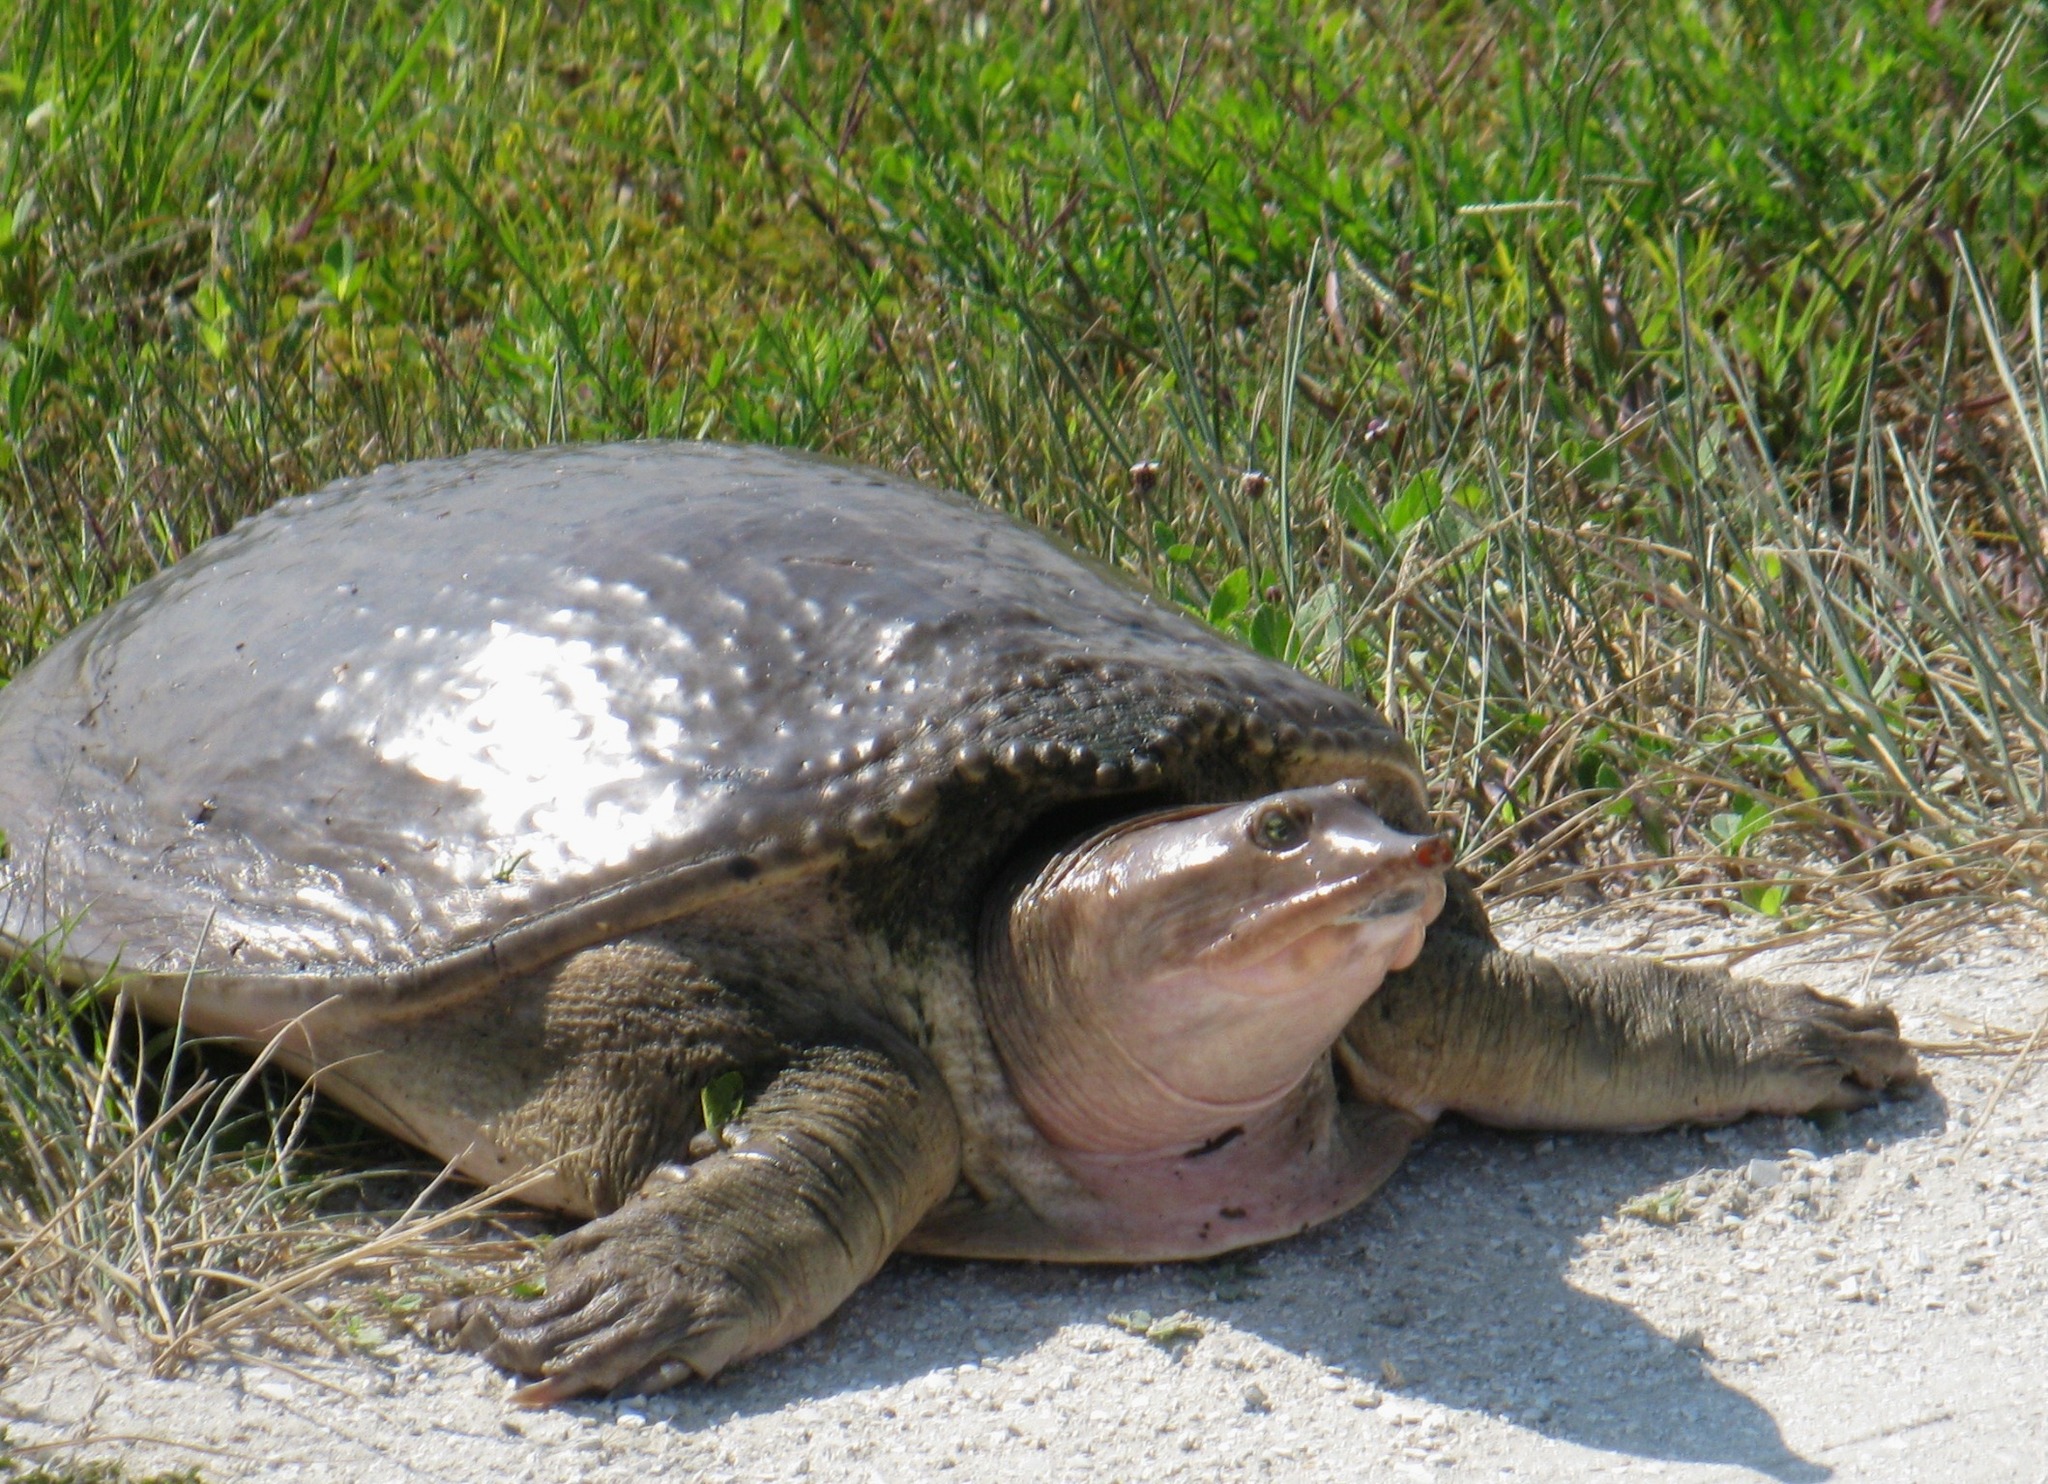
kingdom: Animalia
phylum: Chordata
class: Testudines
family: Trionychidae
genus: Apalone
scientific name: Apalone ferox
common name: Florida softshell turtle
